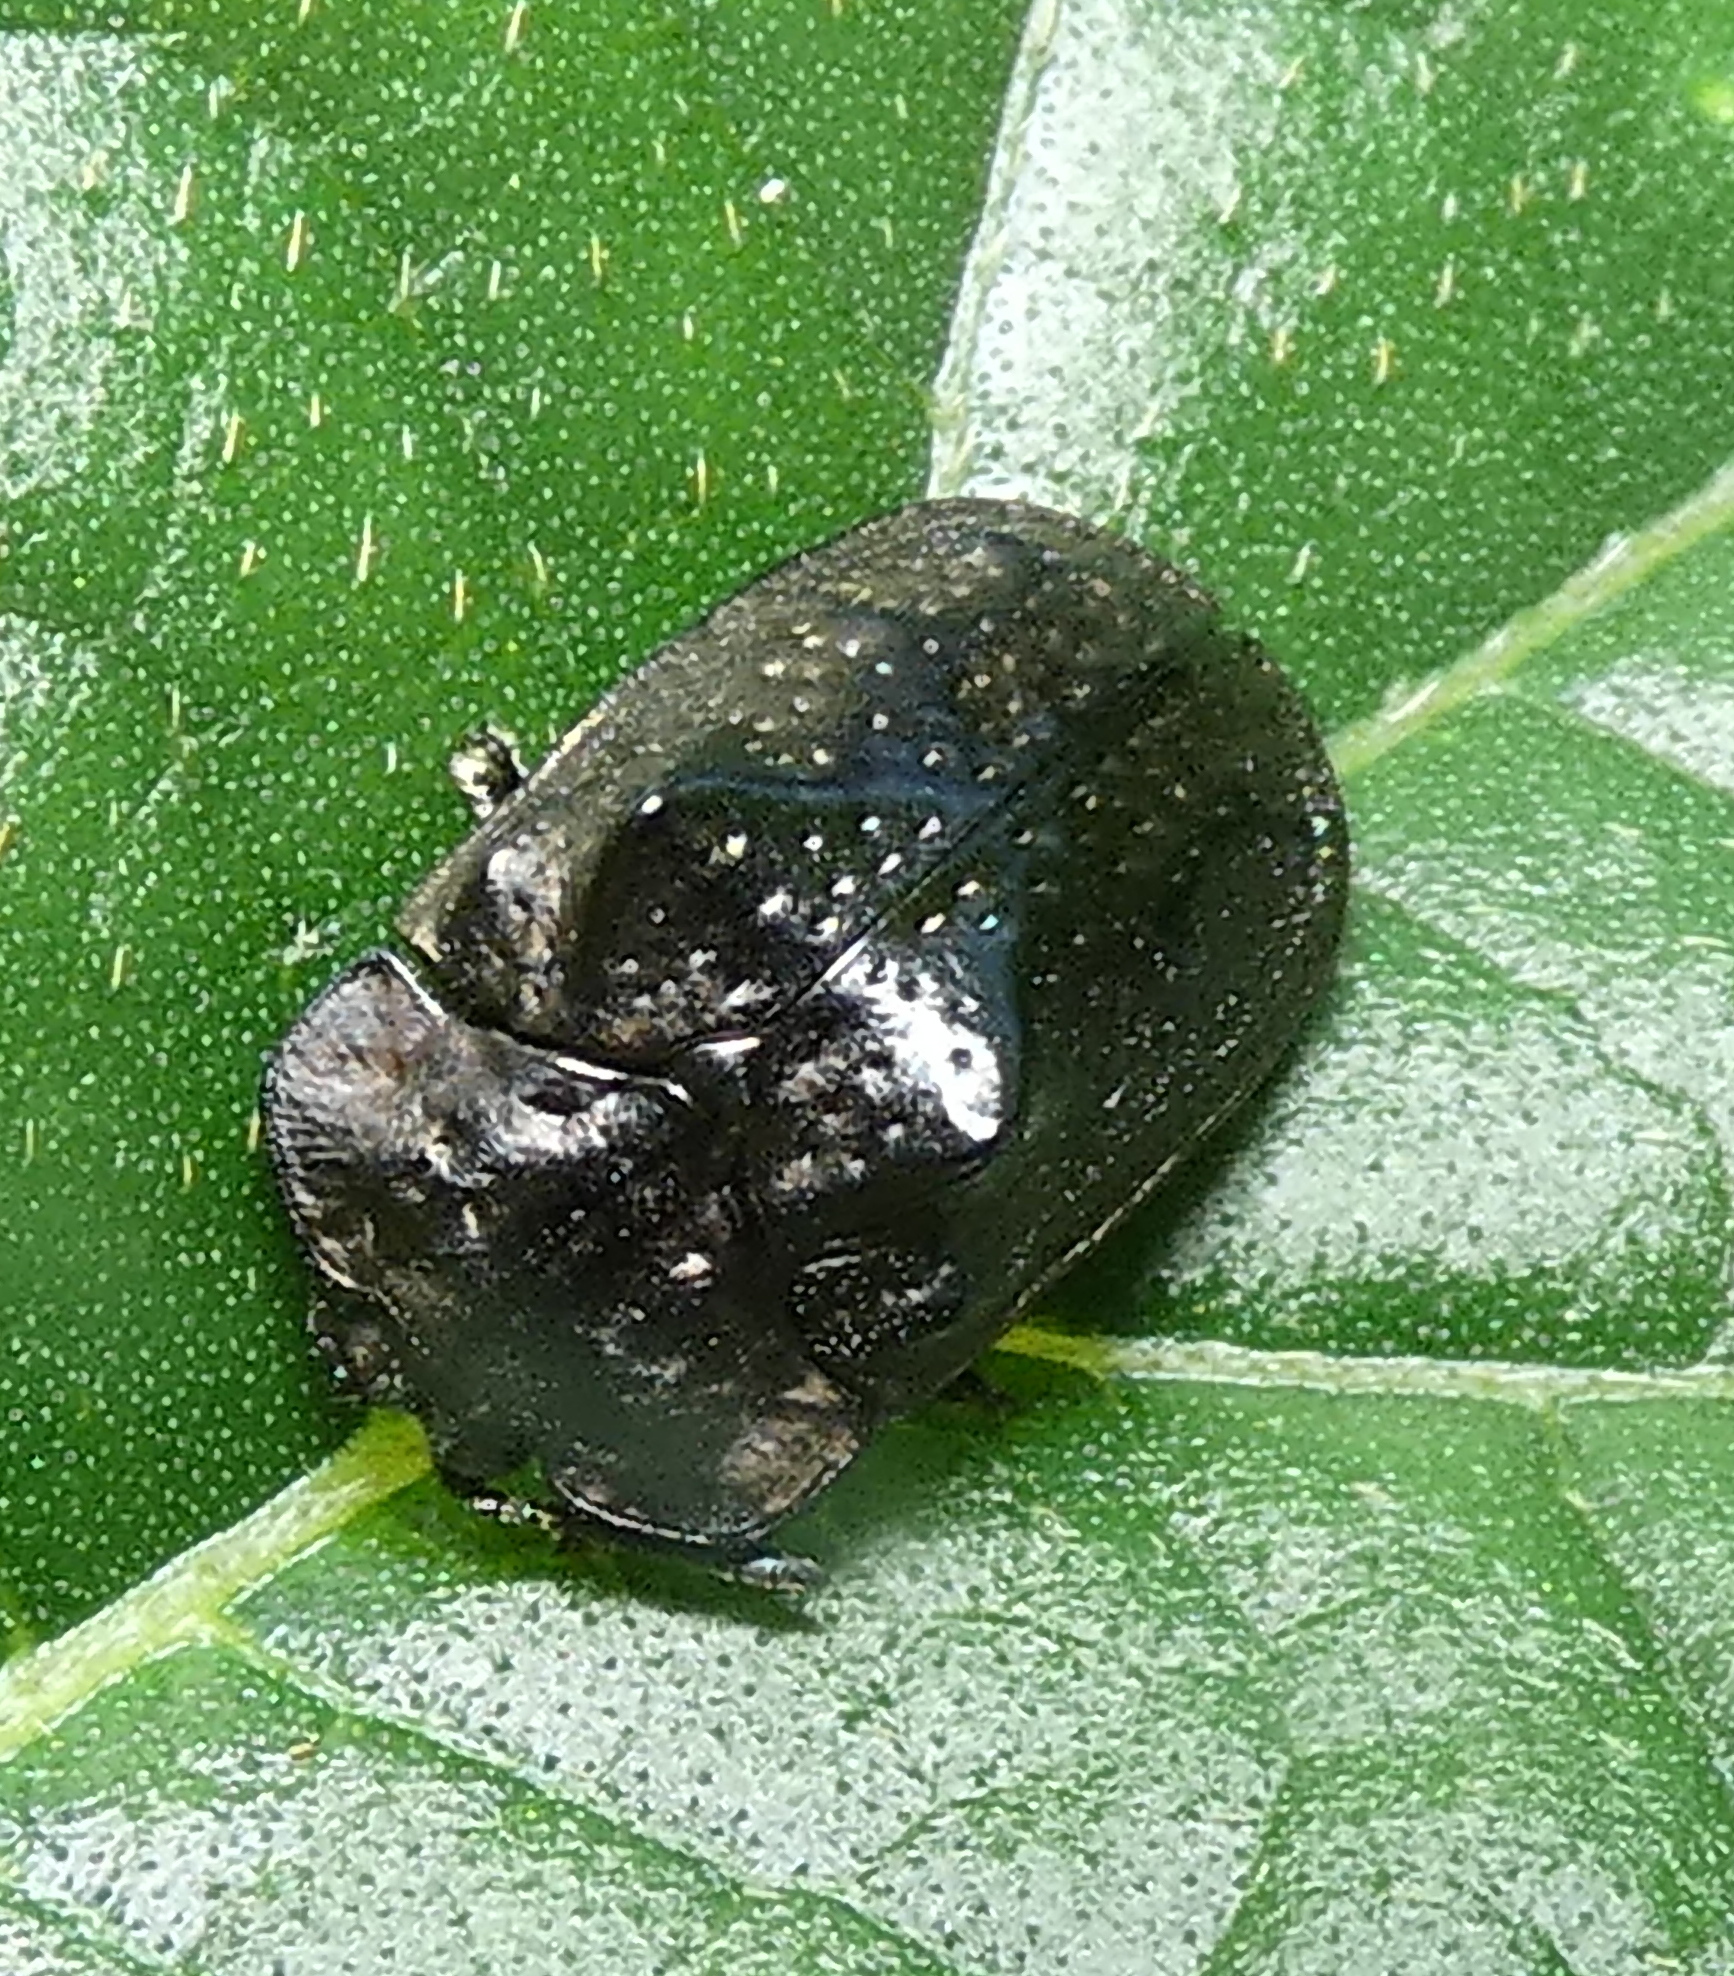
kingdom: Animalia
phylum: Arthropoda
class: Insecta
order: Coleoptera
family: Chrysomelidae
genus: Chlamydocassis
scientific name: Chlamydocassis bicornuta
